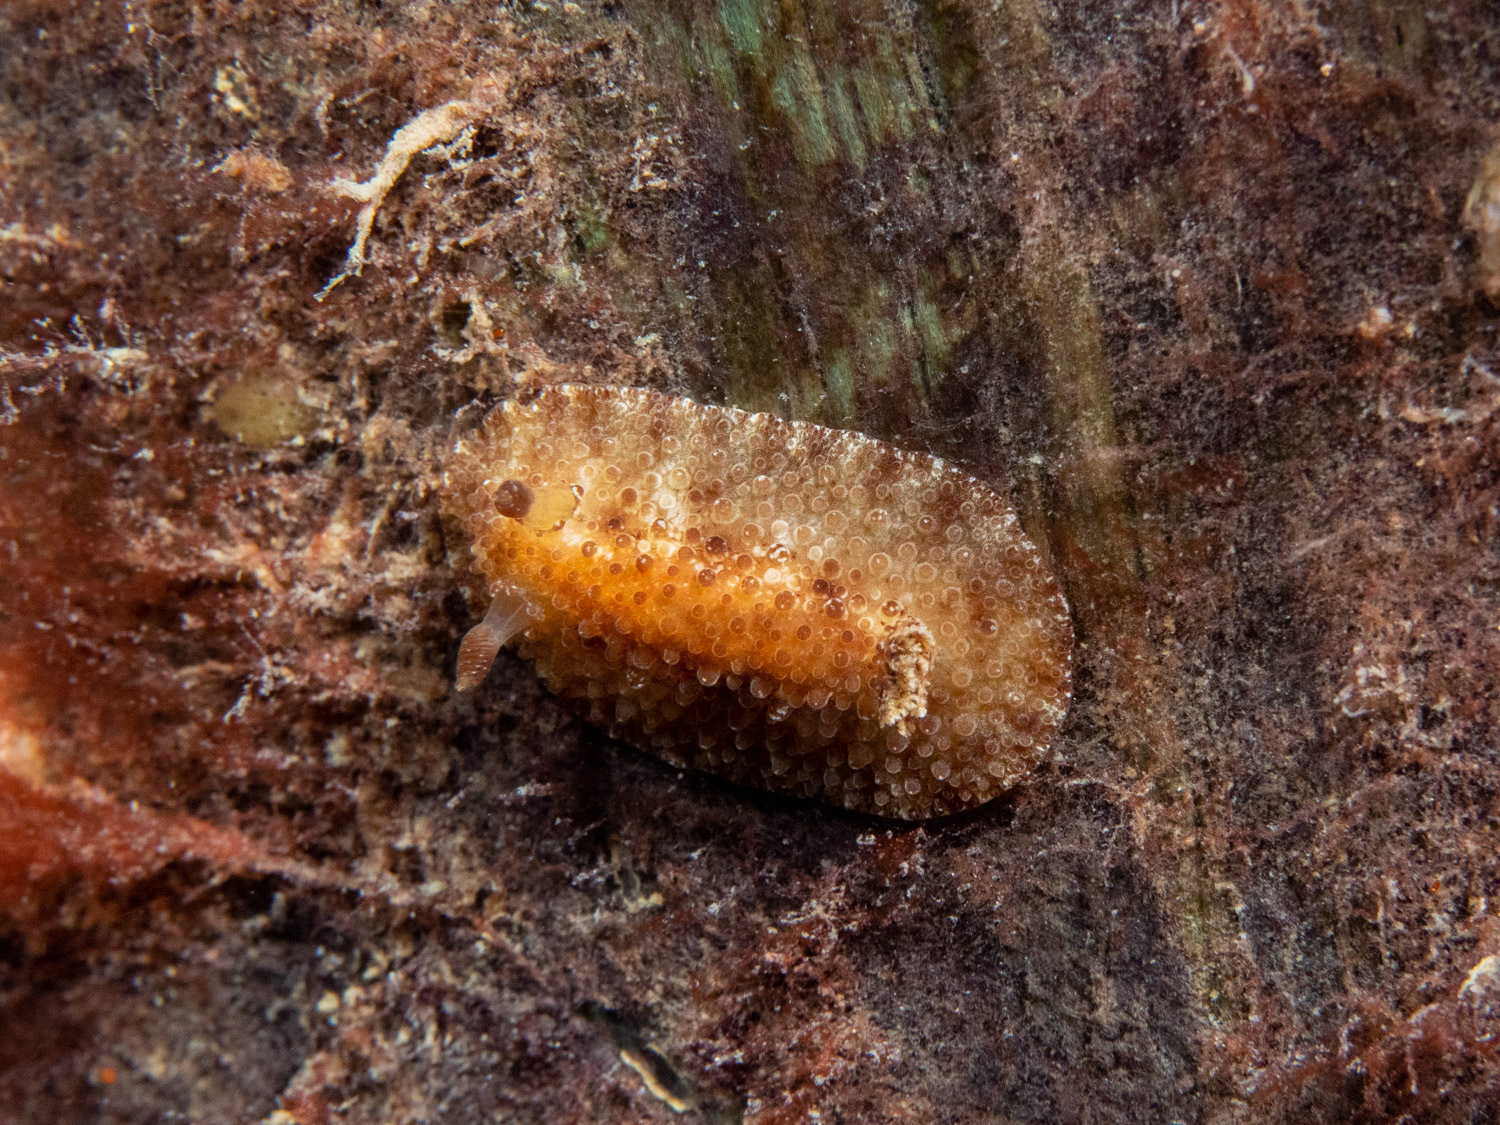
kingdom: Animalia
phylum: Mollusca
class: Gastropoda
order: Nudibranchia
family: Discodorididae
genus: Carminodoris
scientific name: Carminodoris nodulosa
